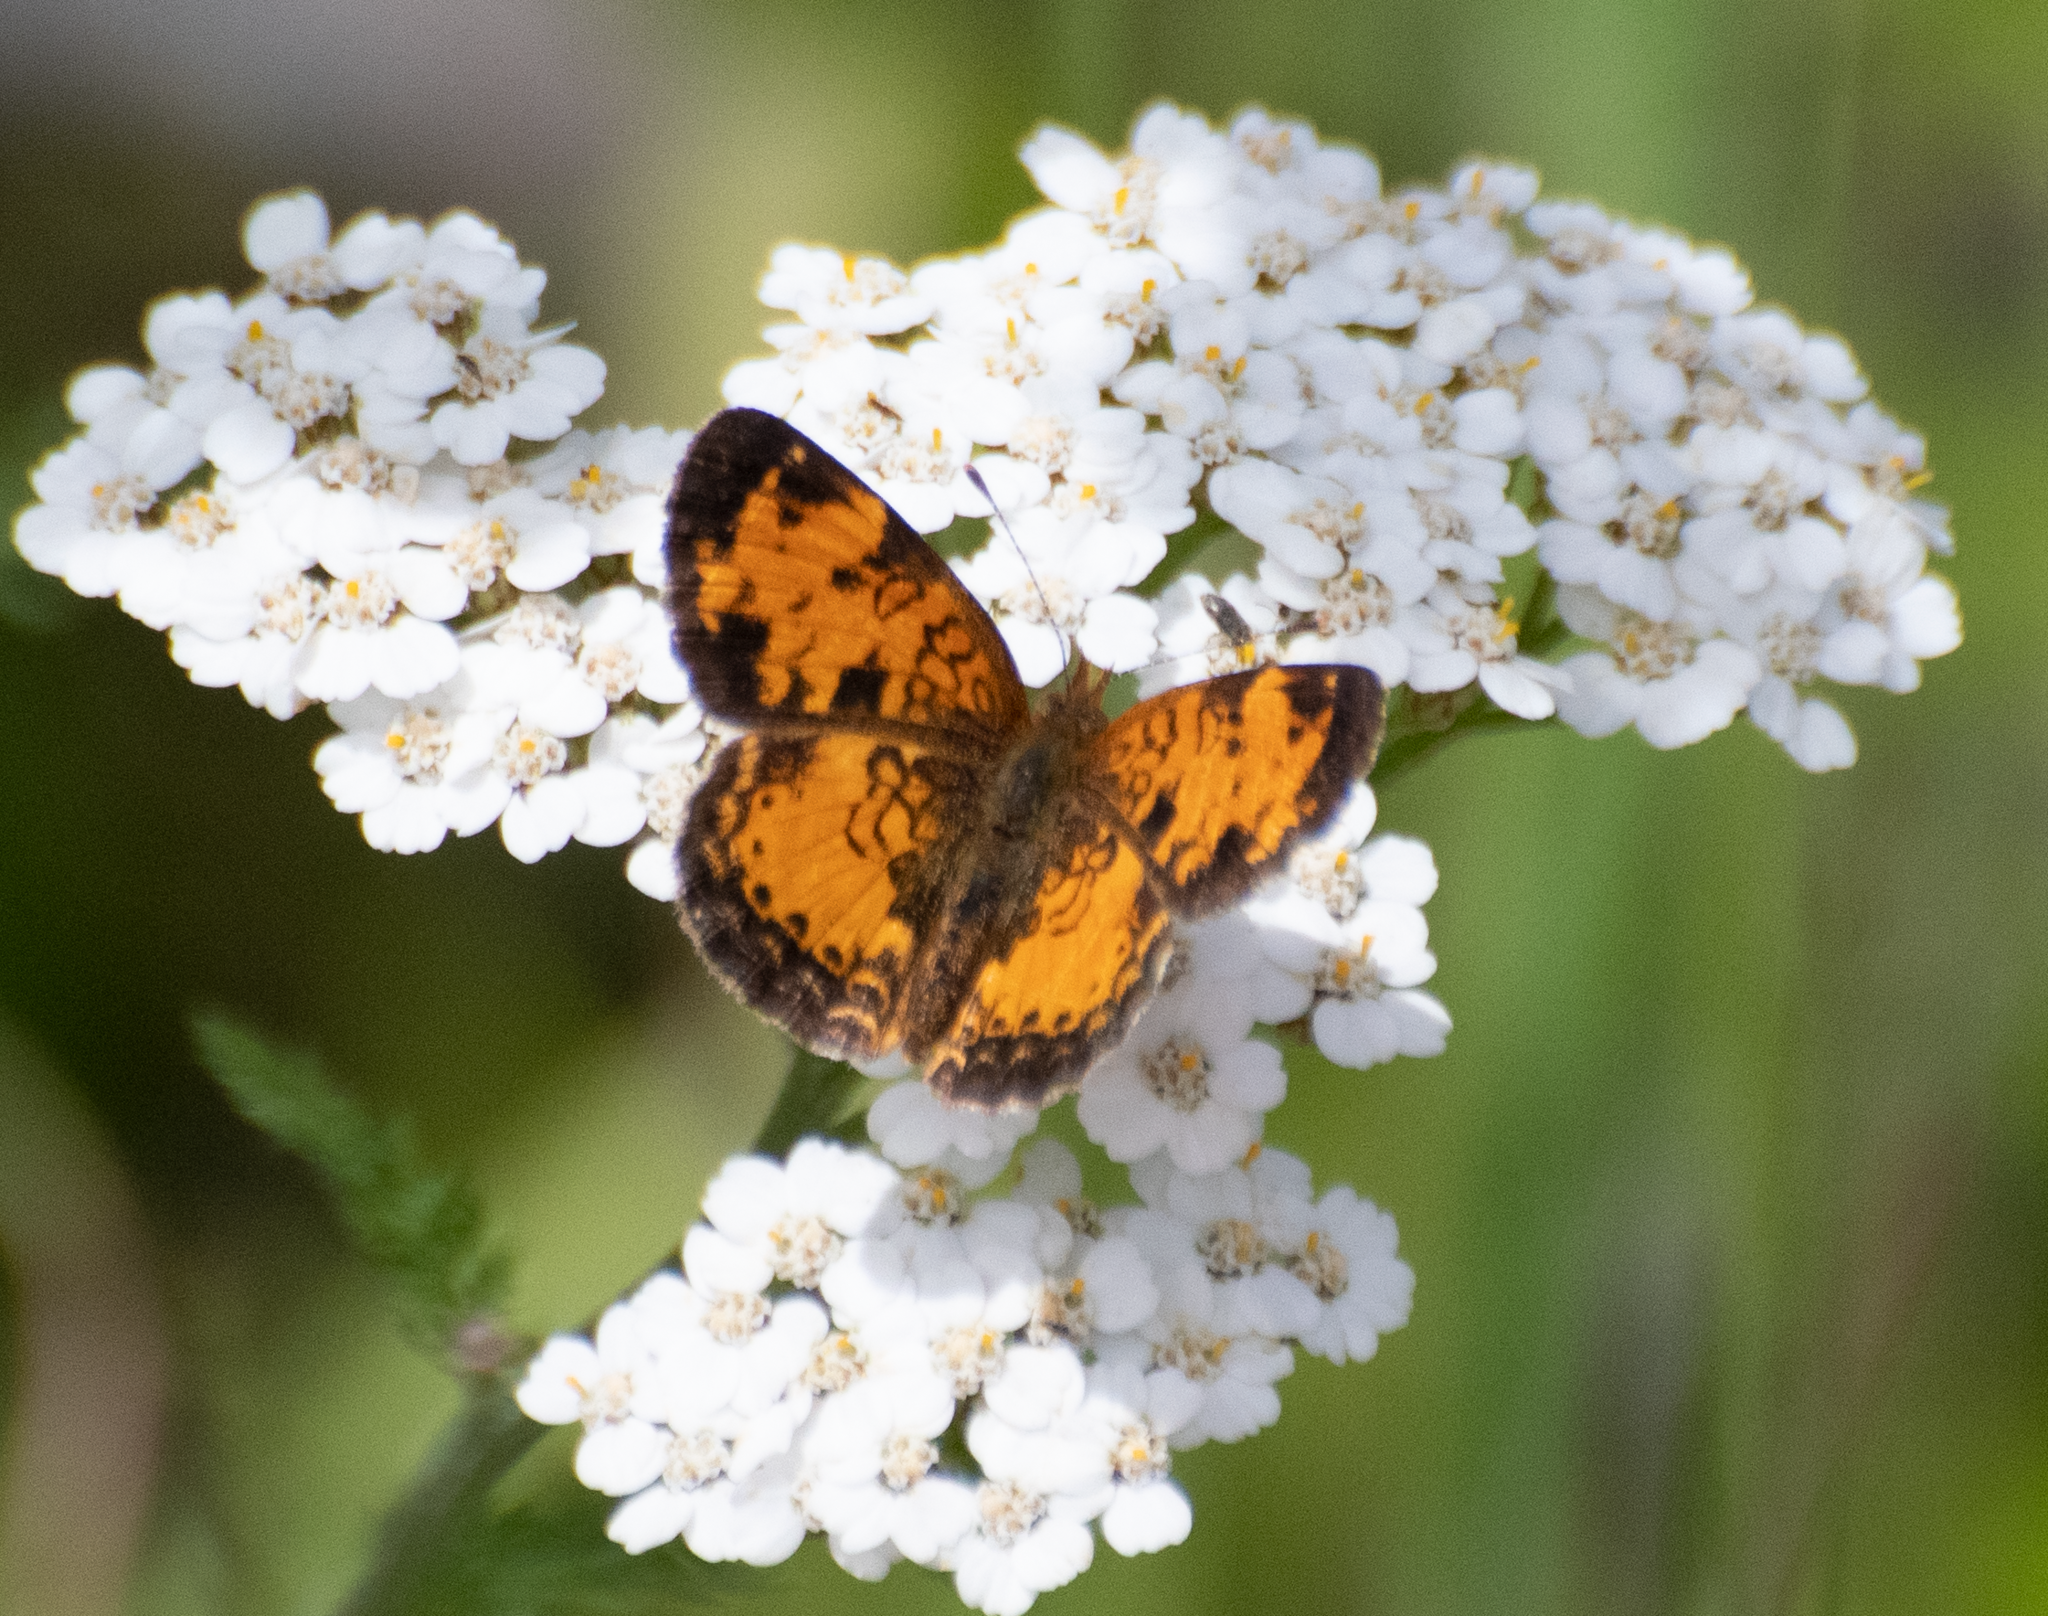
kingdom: Animalia
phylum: Arthropoda
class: Insecta
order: Lepidoptera
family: Nymphalidae
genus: Phyciodes
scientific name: Phyciodes tharos
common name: Pearl crescent
